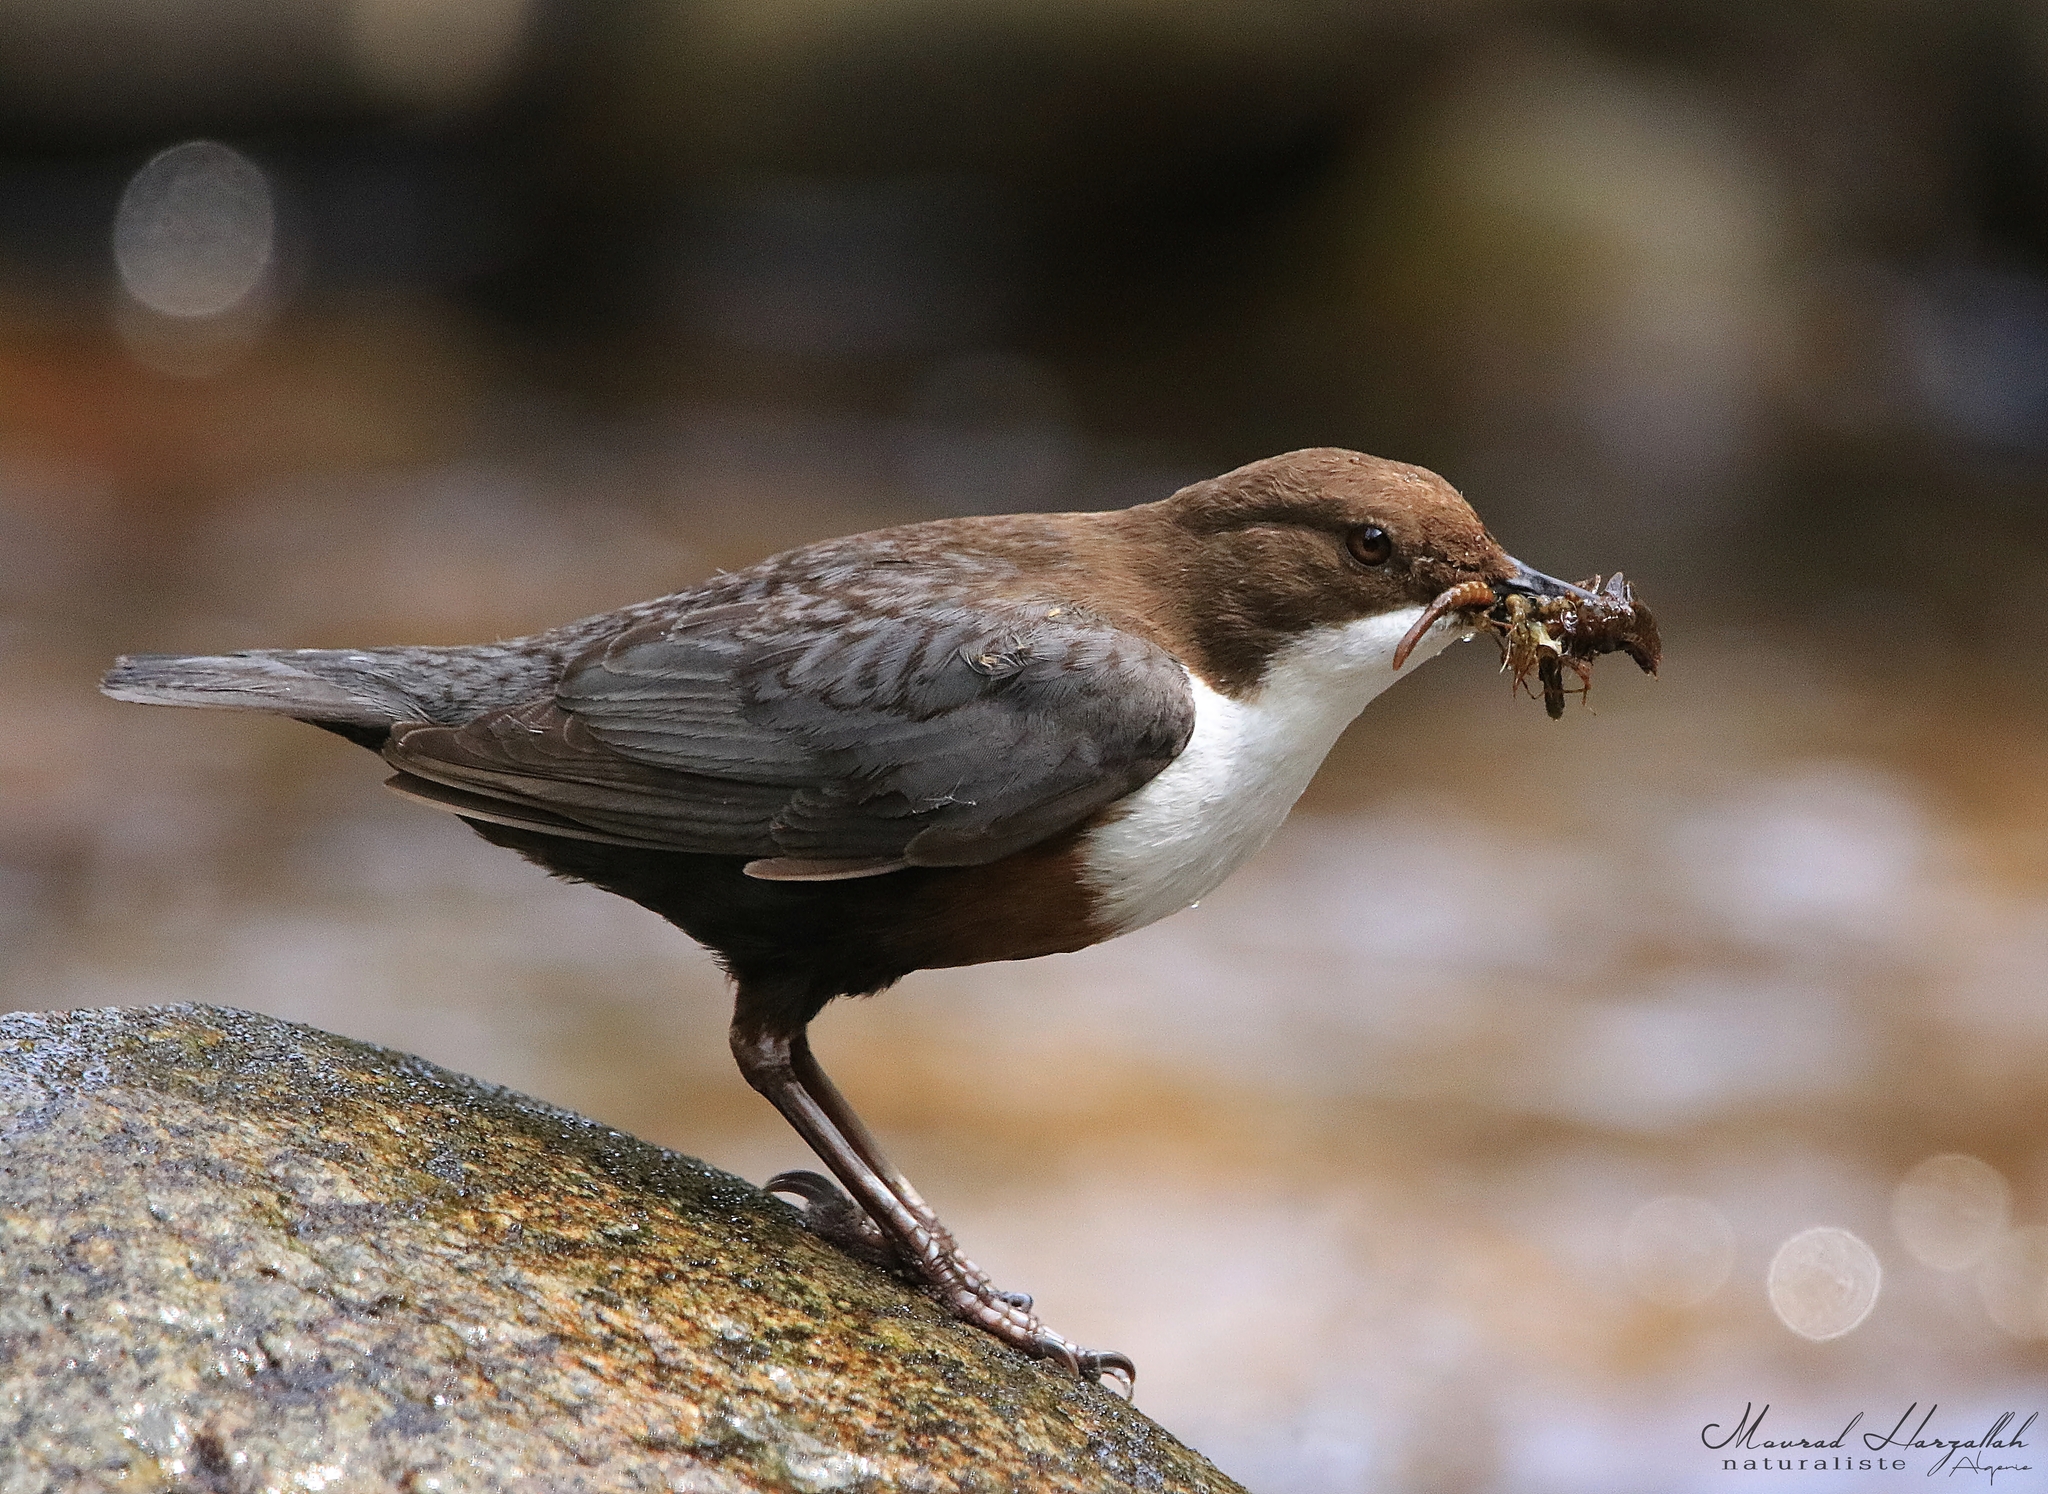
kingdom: Animalia
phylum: Chordata
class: Aves
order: Passeriformes
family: Cinclidae
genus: Cinclus
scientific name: Cinclus cinclus
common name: White-throated dipper
